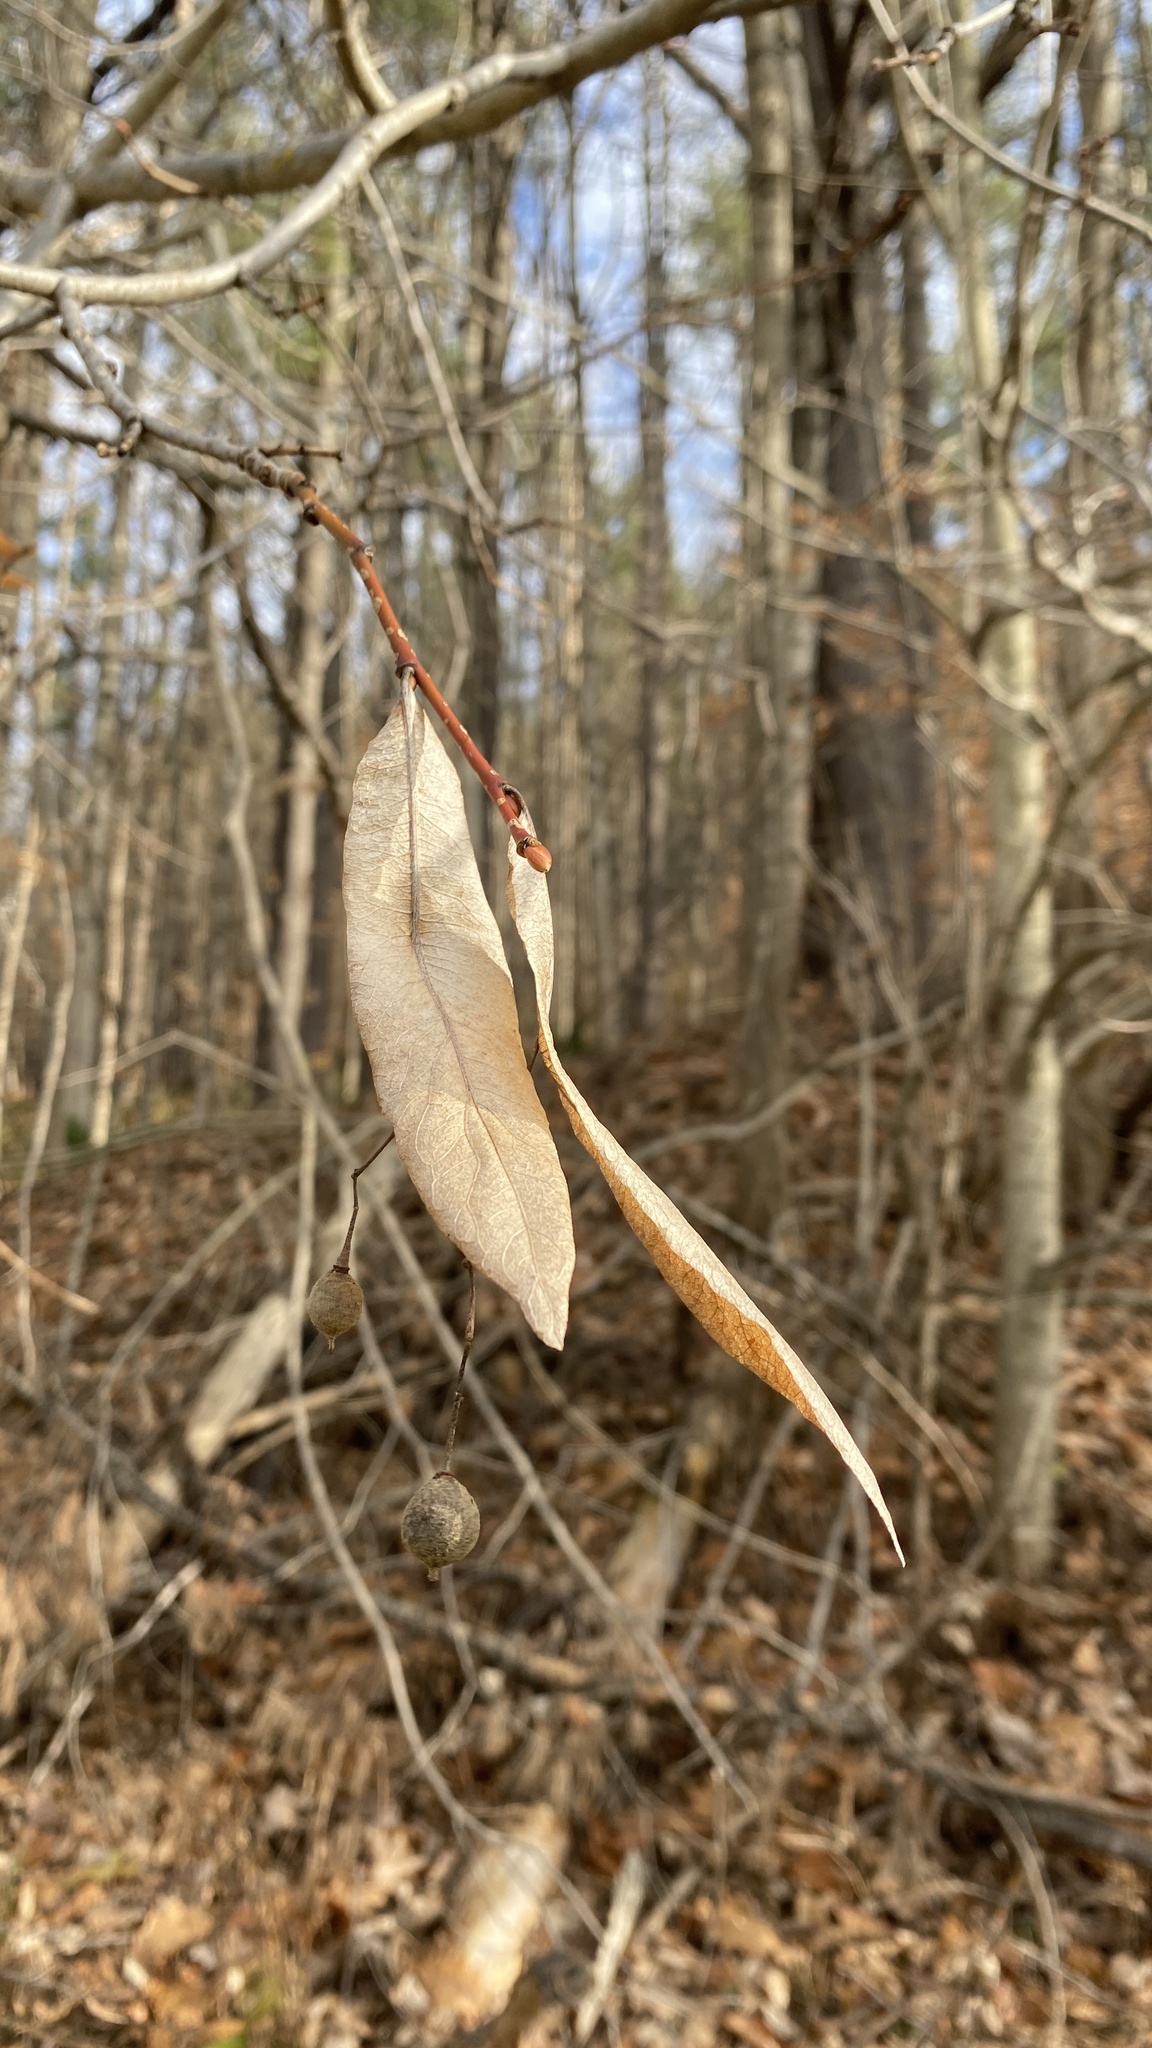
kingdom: Plantae
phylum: Tracheophyta
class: Magnoliopsida
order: Malvales
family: Malvaceae
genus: Tilia
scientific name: Tilia americana
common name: Basswood
